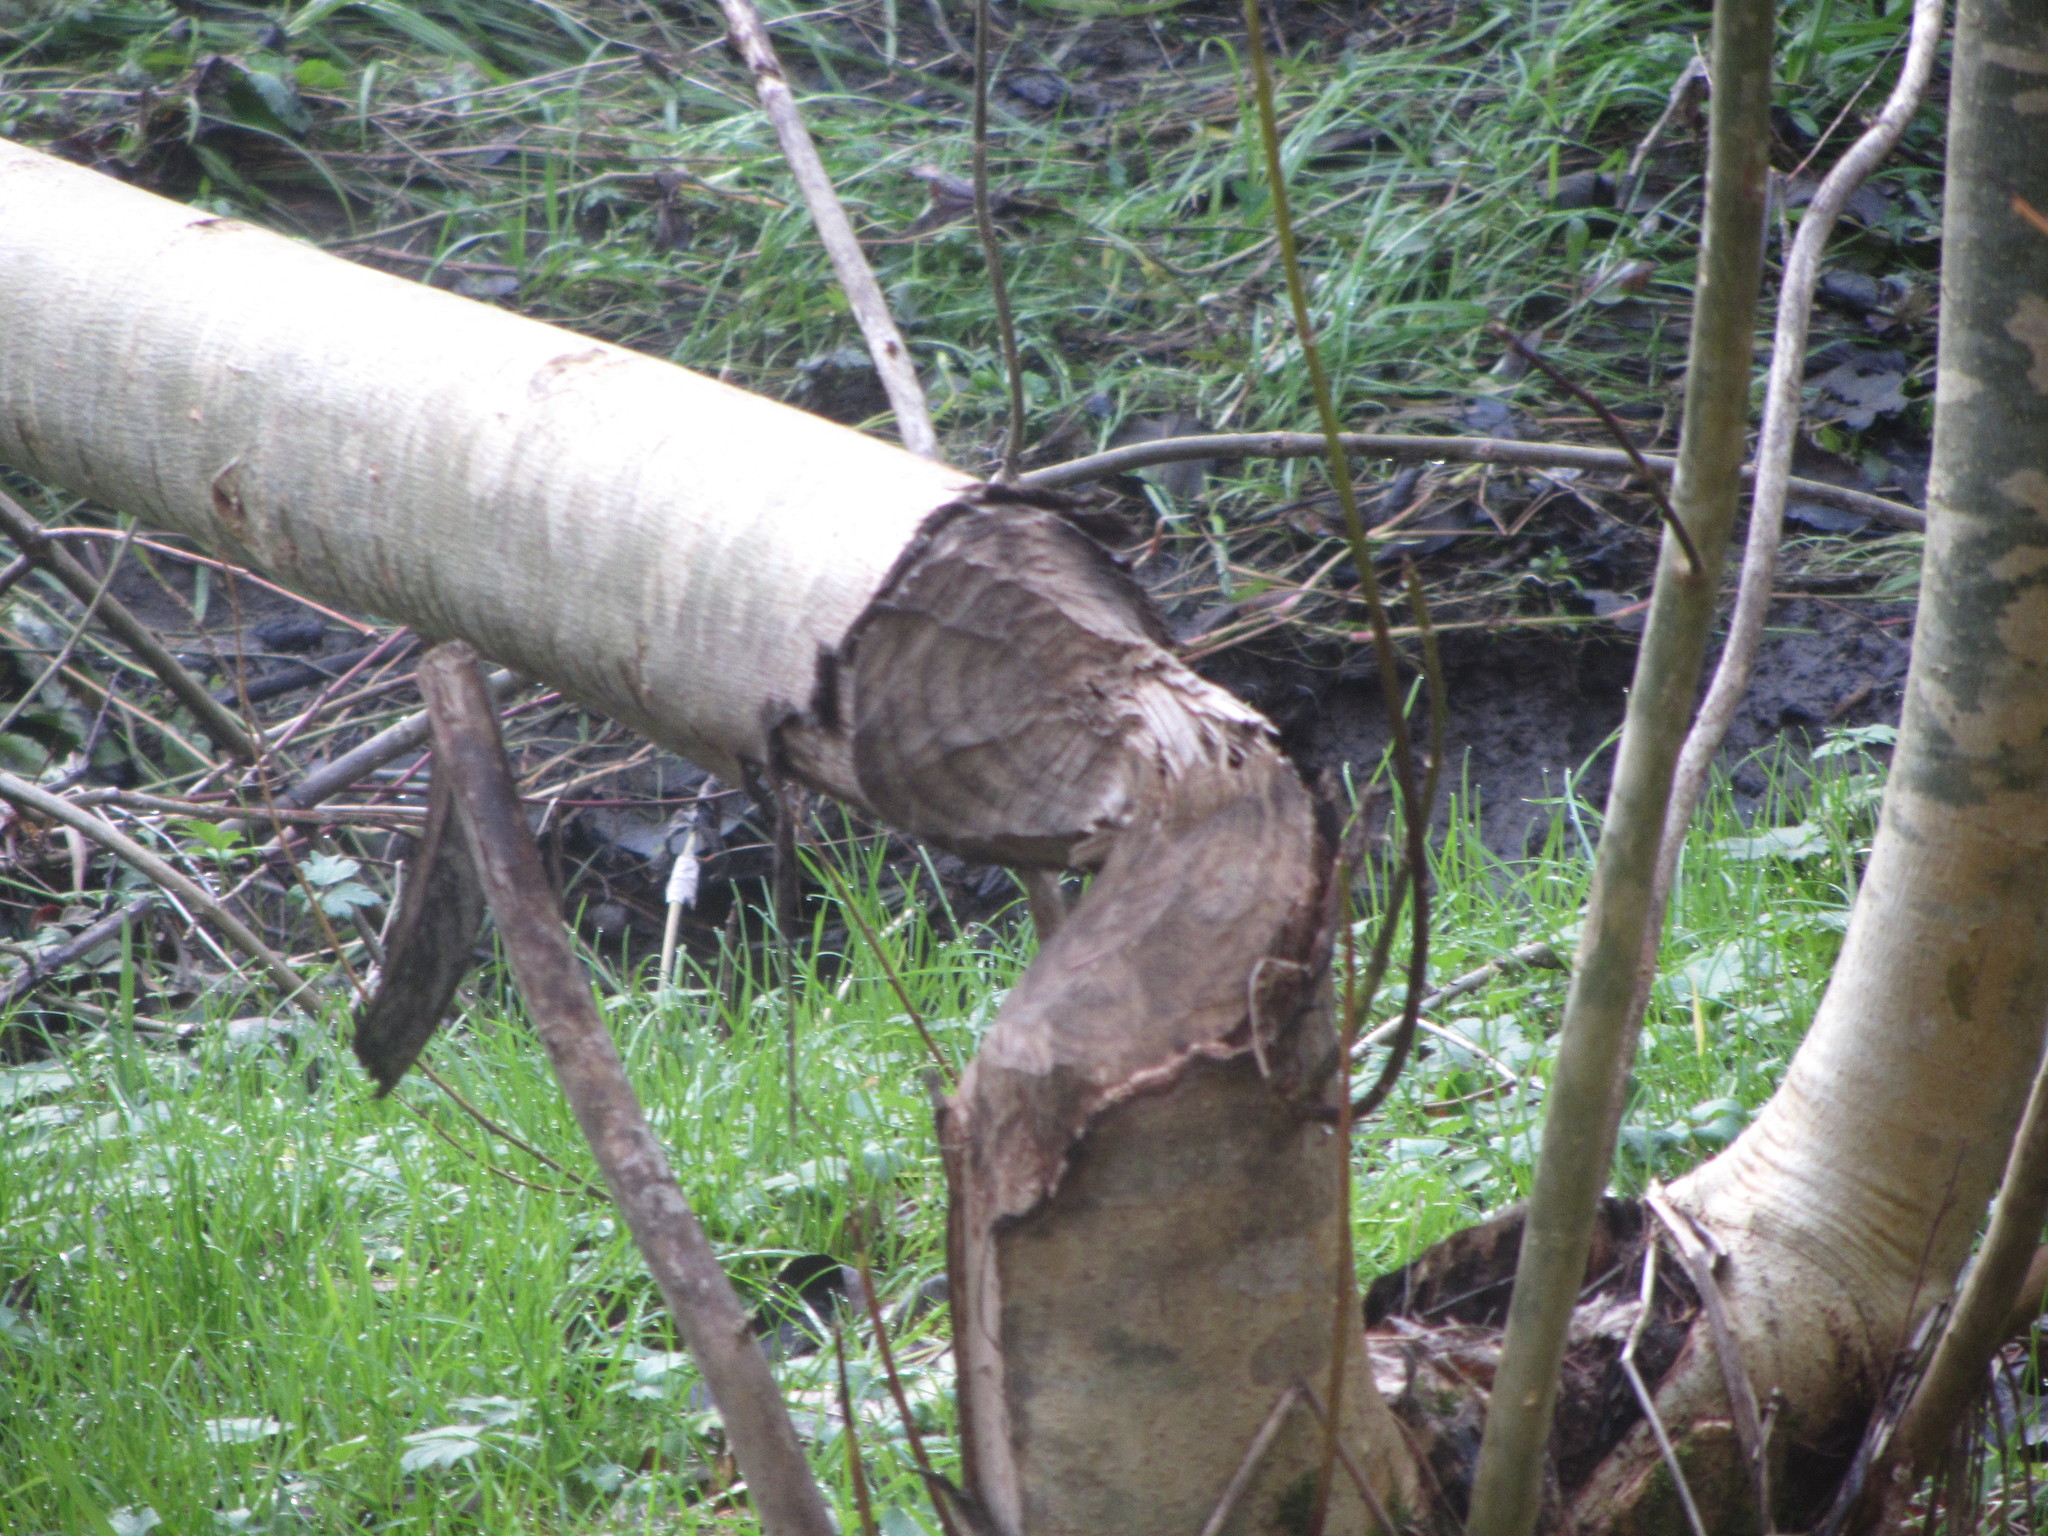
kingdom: Animalia
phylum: Chordata
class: Mammalia
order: Rodentia
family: Castoridae
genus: Castor
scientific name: Castor canadensis
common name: American beaver
